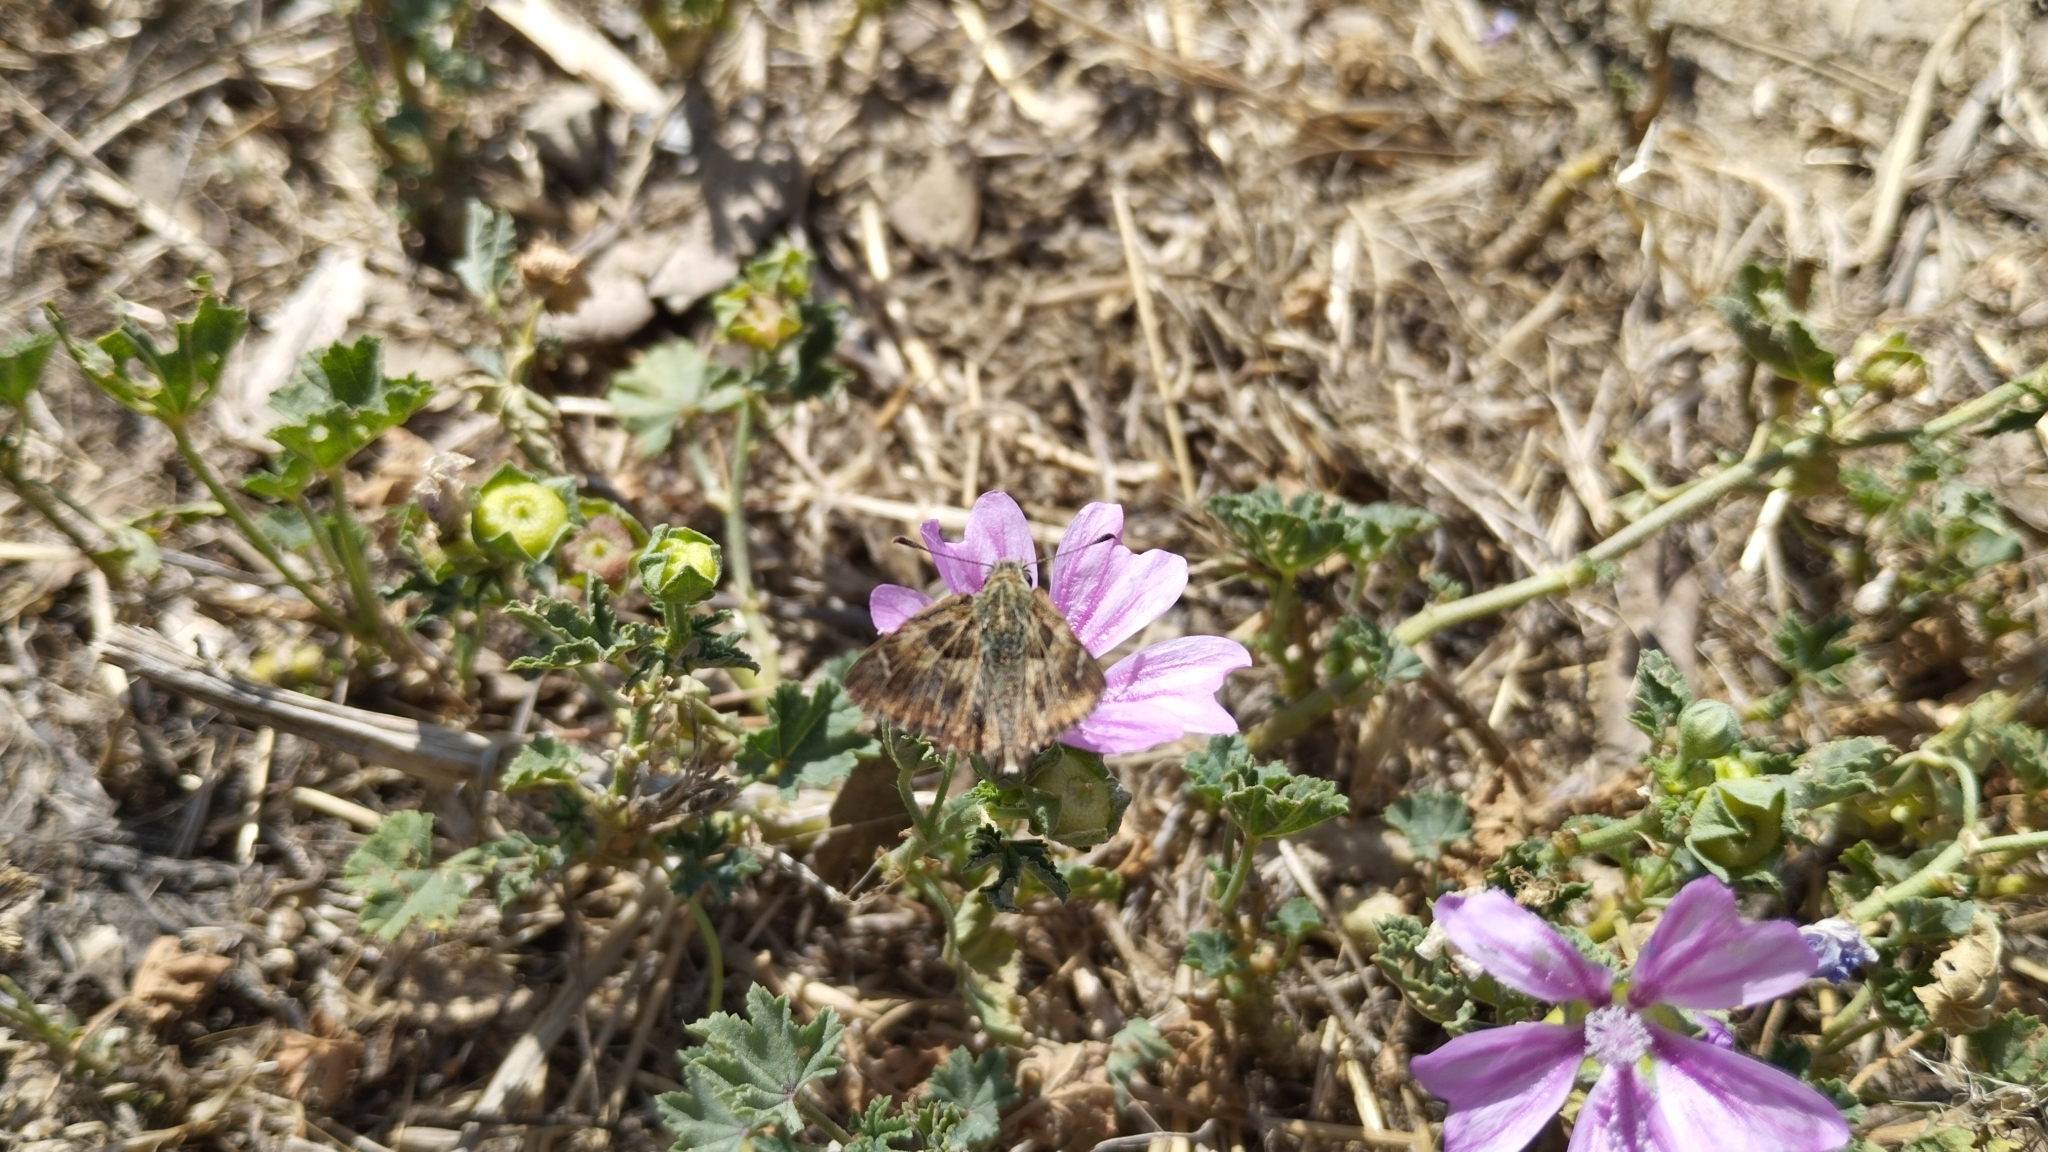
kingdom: Animalia
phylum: Arthropoda
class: Insecta
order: Lepidoptera
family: Hesperiidae
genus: Carcharodus
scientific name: Carcharodus alceae
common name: Mallow skipper
